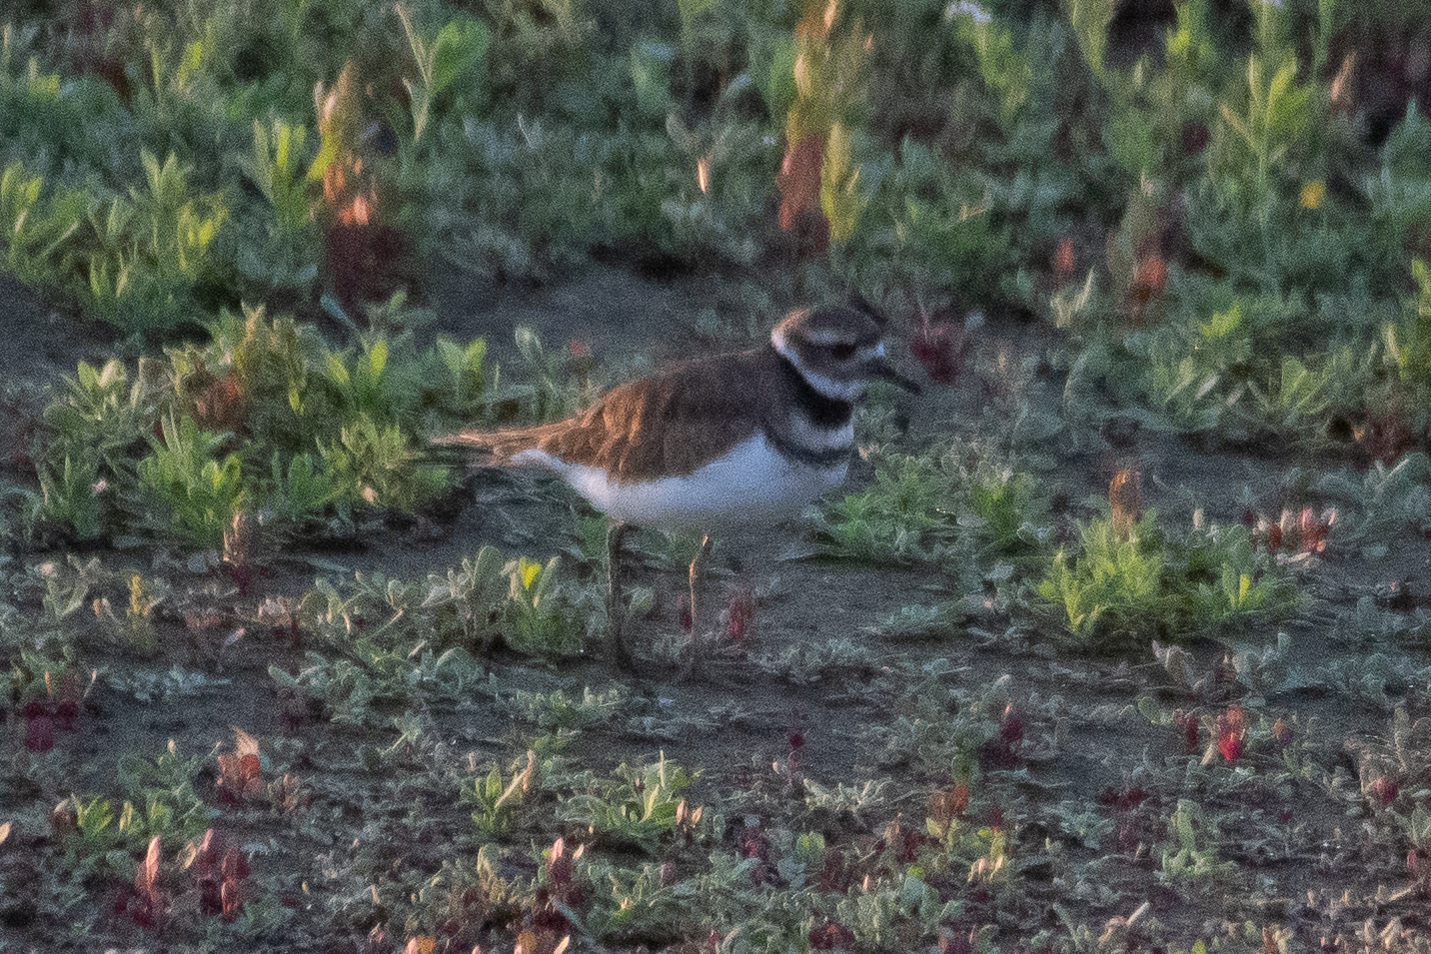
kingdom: Animalia
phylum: Chordata
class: Aves
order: Charadriiformes
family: Charadriidae
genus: Charadrius
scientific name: Charadrius vociferus
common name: Killdeer
